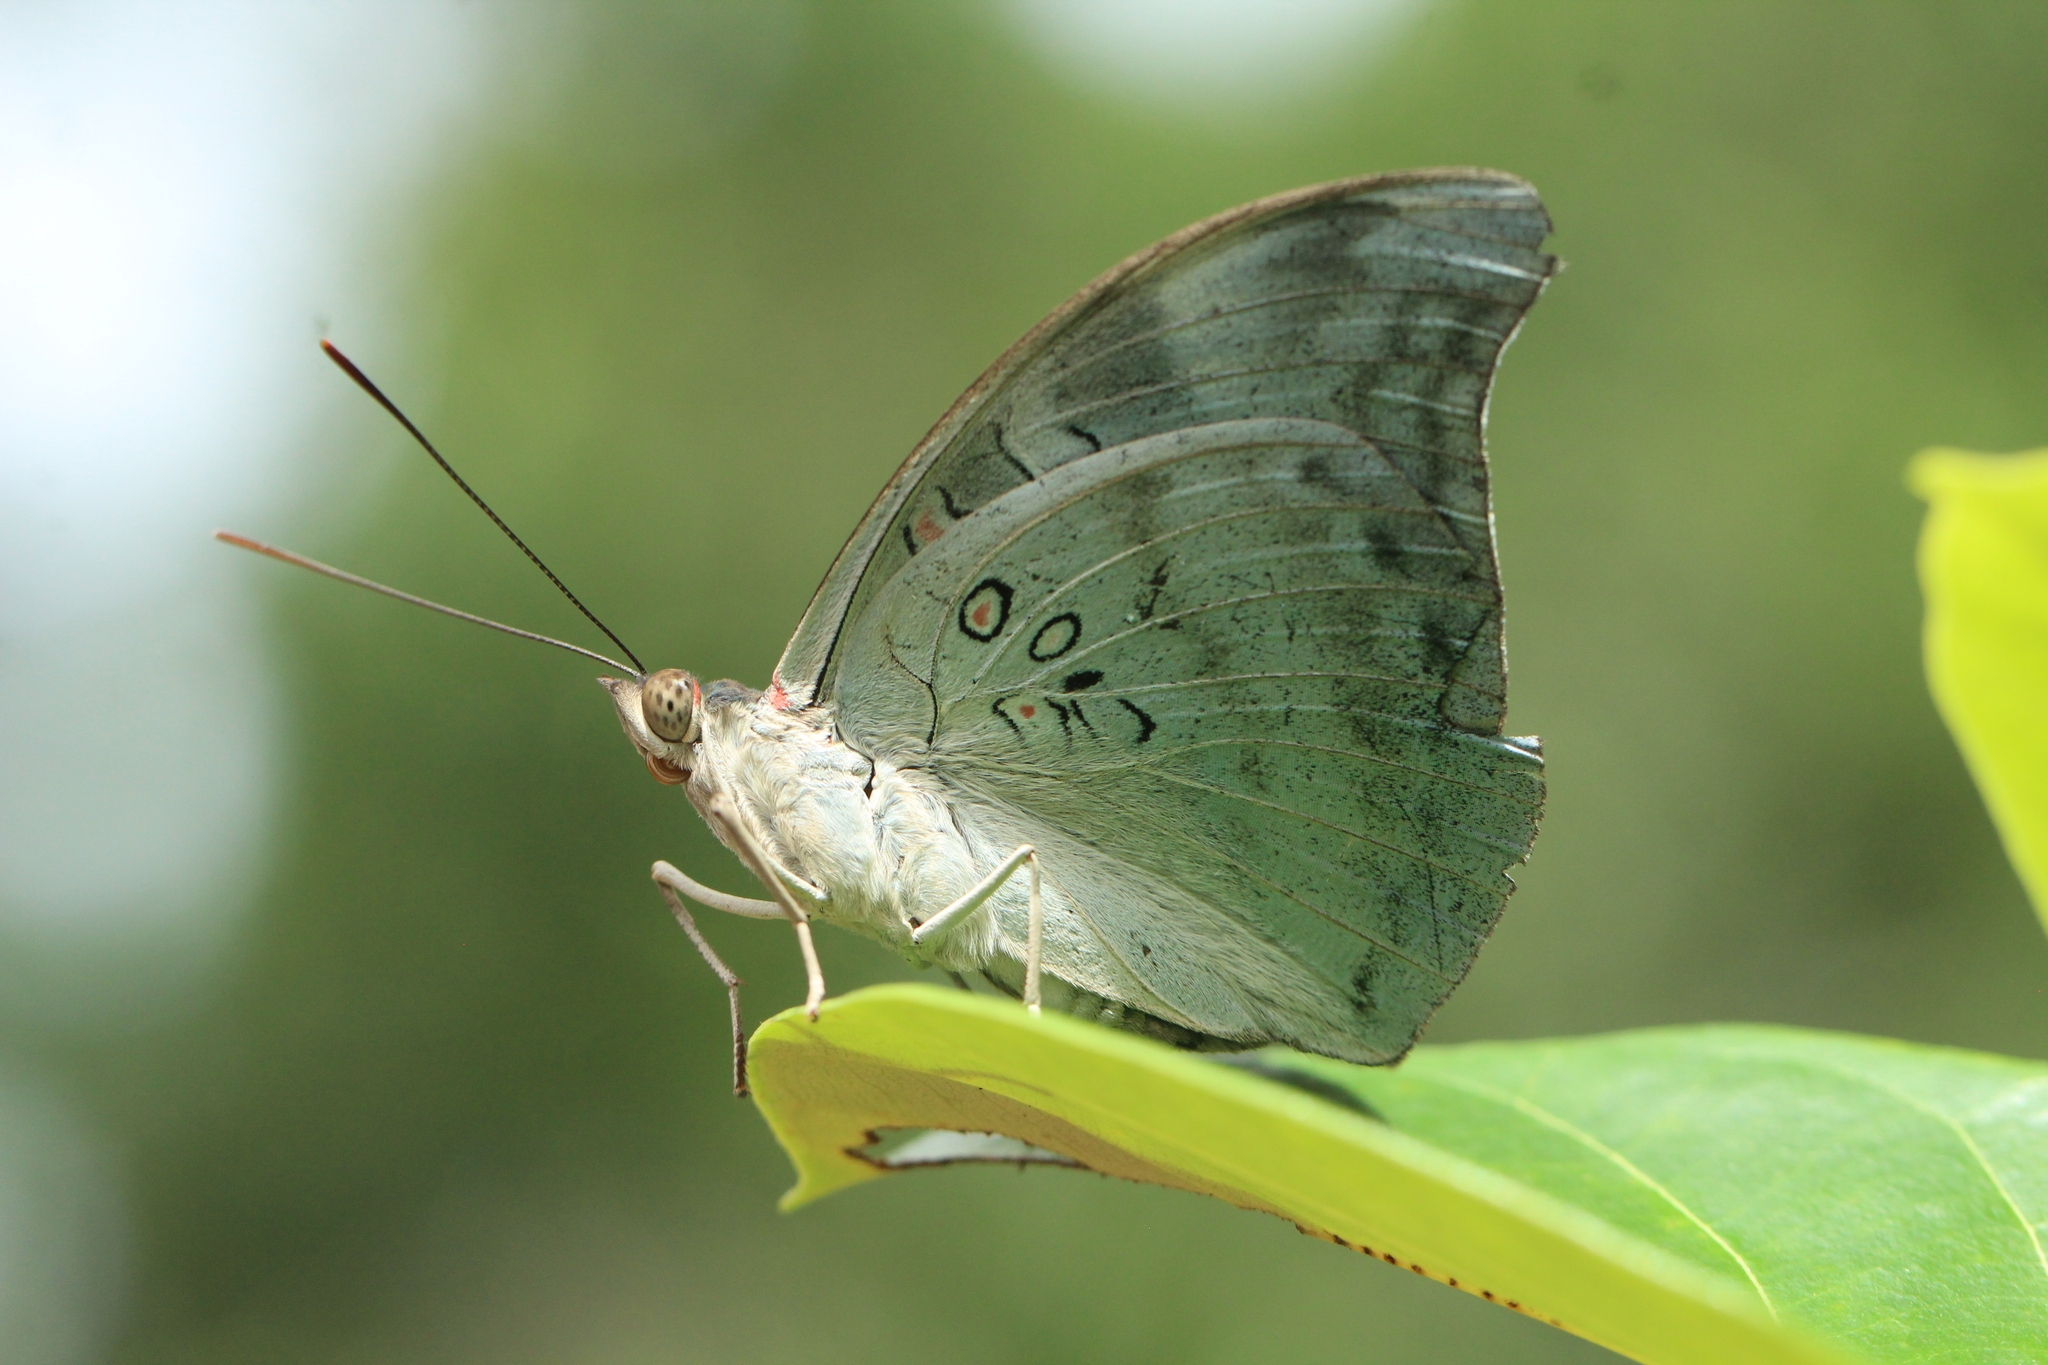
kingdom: Animalia
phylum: Arthropoda
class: Insecta
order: Lepidoptera
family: Nymphalidae
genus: Euthalia
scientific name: Euthalia Dophla evelina
